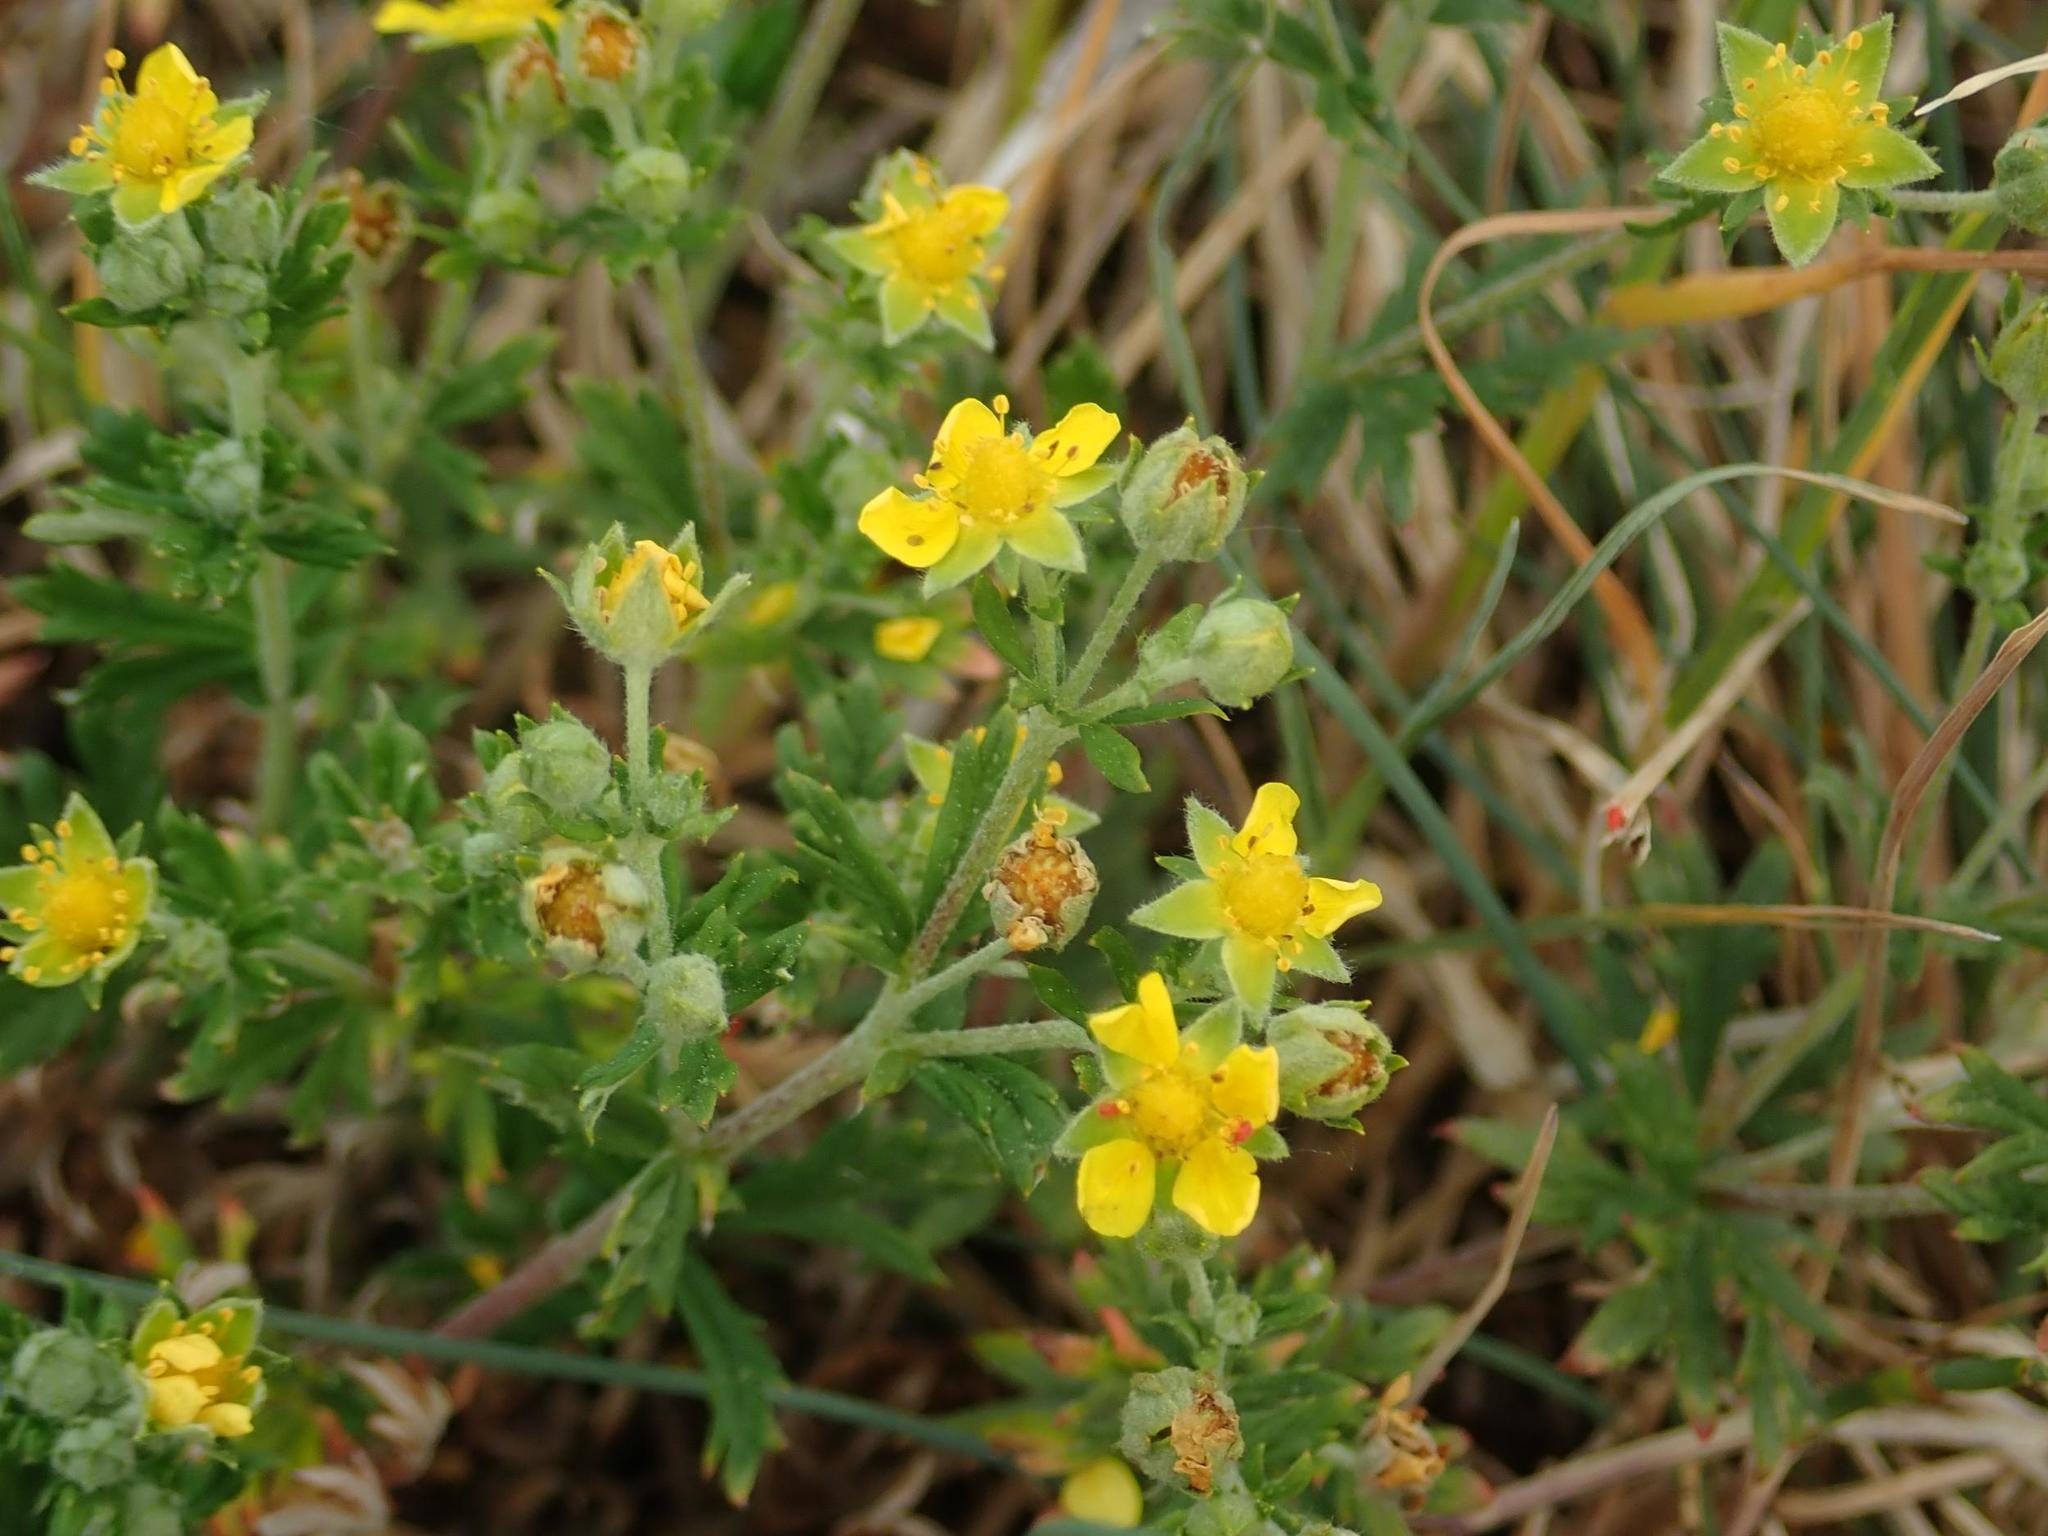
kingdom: Plantae
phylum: Tracheophyta
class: Magnoliopsida
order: Rosales
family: Rosaceae
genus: Potentilla
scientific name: Potentilla argentea
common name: Hoary cinquefoil
